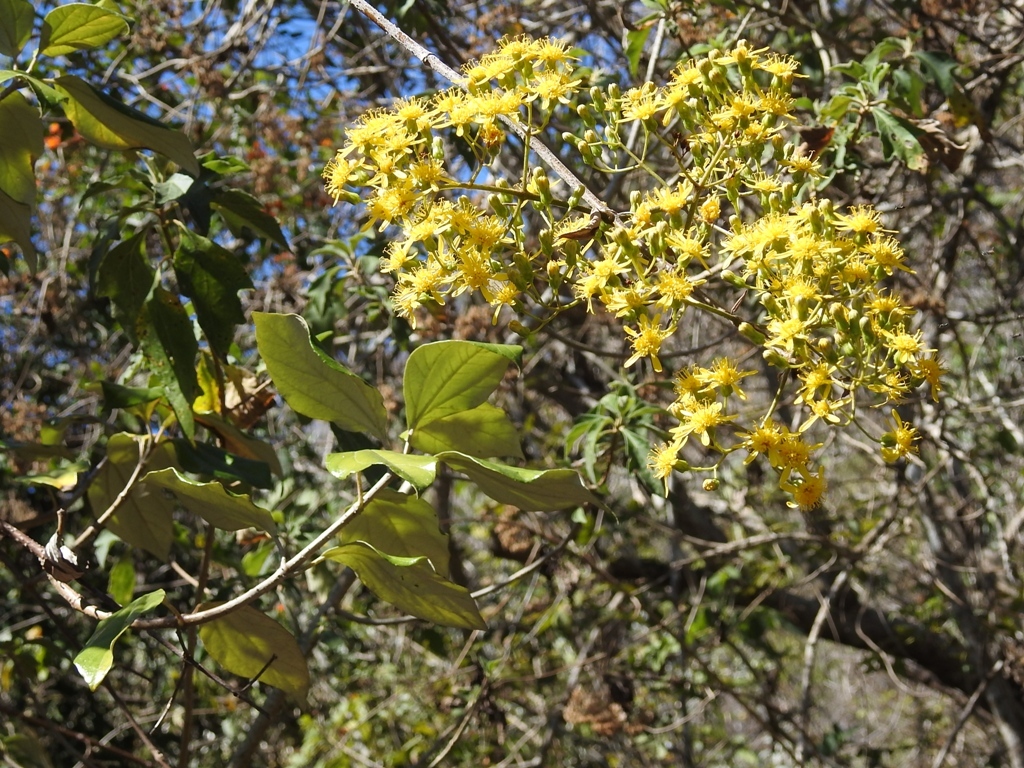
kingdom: Plantae
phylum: Tracheophyta
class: Magnoliopsida
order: Asterales
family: Asteraceae
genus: Sinclairia
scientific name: Sinclairia discolor
